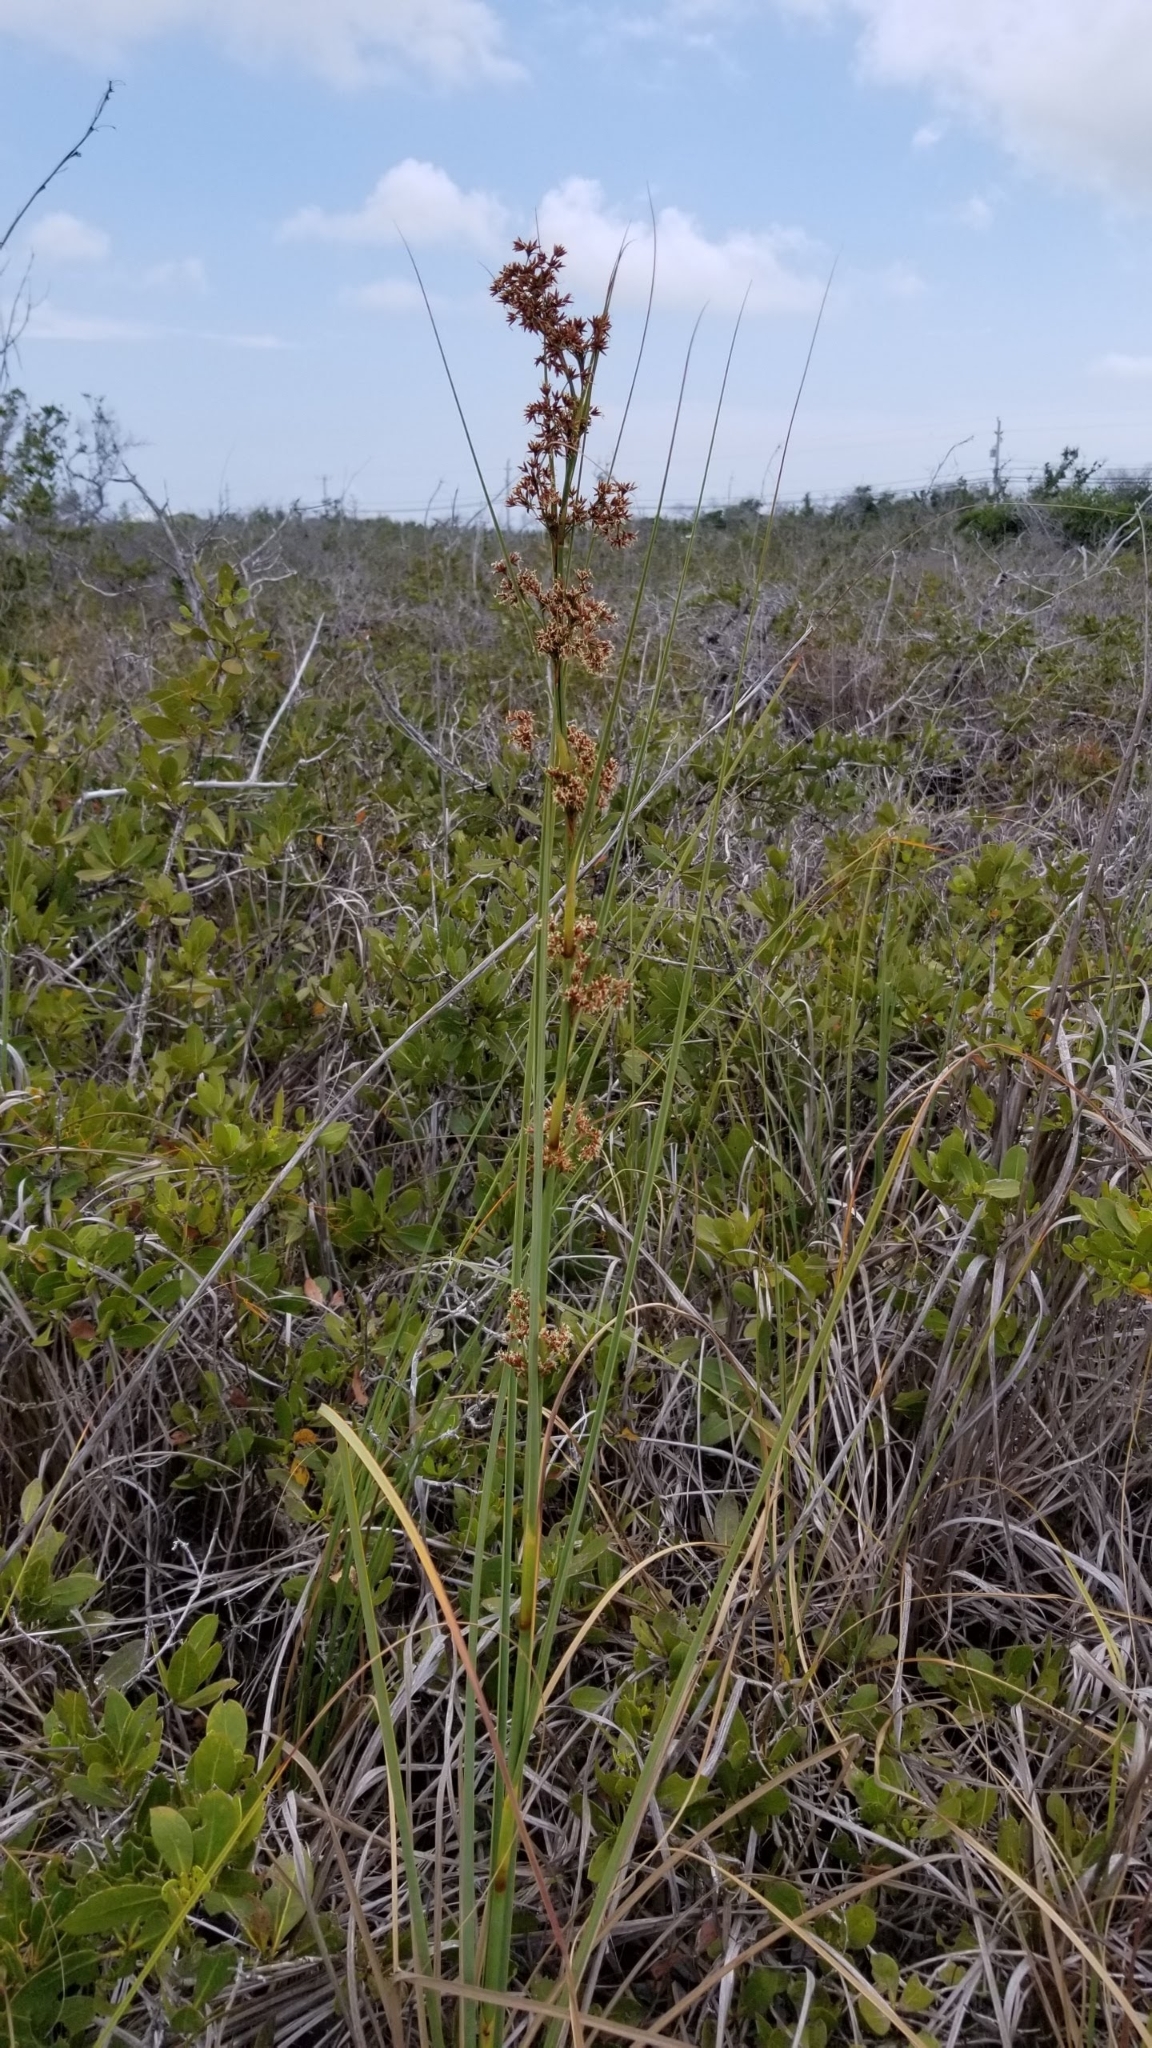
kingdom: Plantae
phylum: Tracheophyta
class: Liliopsida
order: Poales
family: Cyperaceae
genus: Cladium
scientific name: Cladium mariscus
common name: Great fen-sedge
